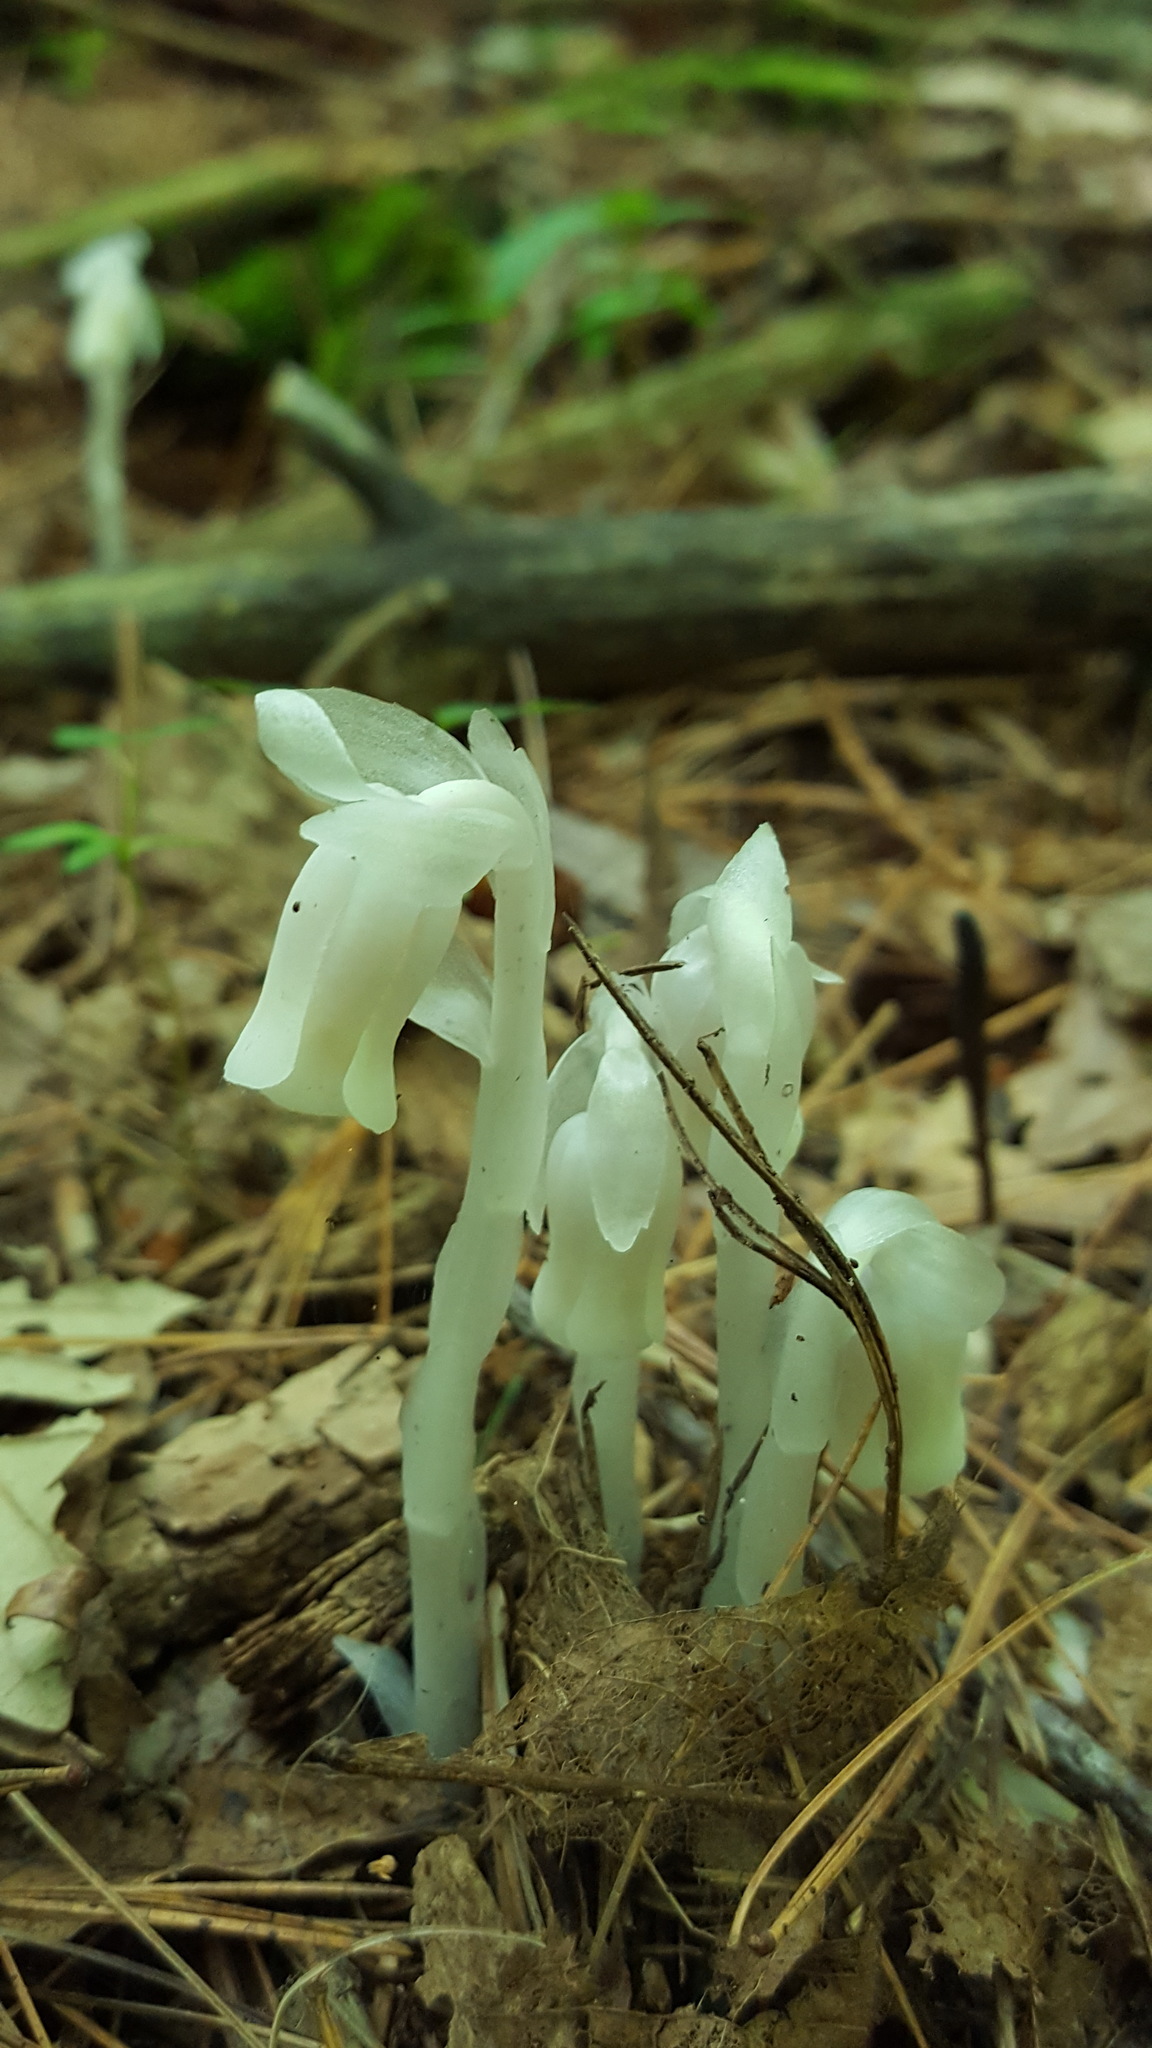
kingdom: Plantae
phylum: Tracheophyta
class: Magnoliopsida
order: Ericales
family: Ericaceae
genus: Monotropa
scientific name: Monotropa uniflora
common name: Convulsion root
